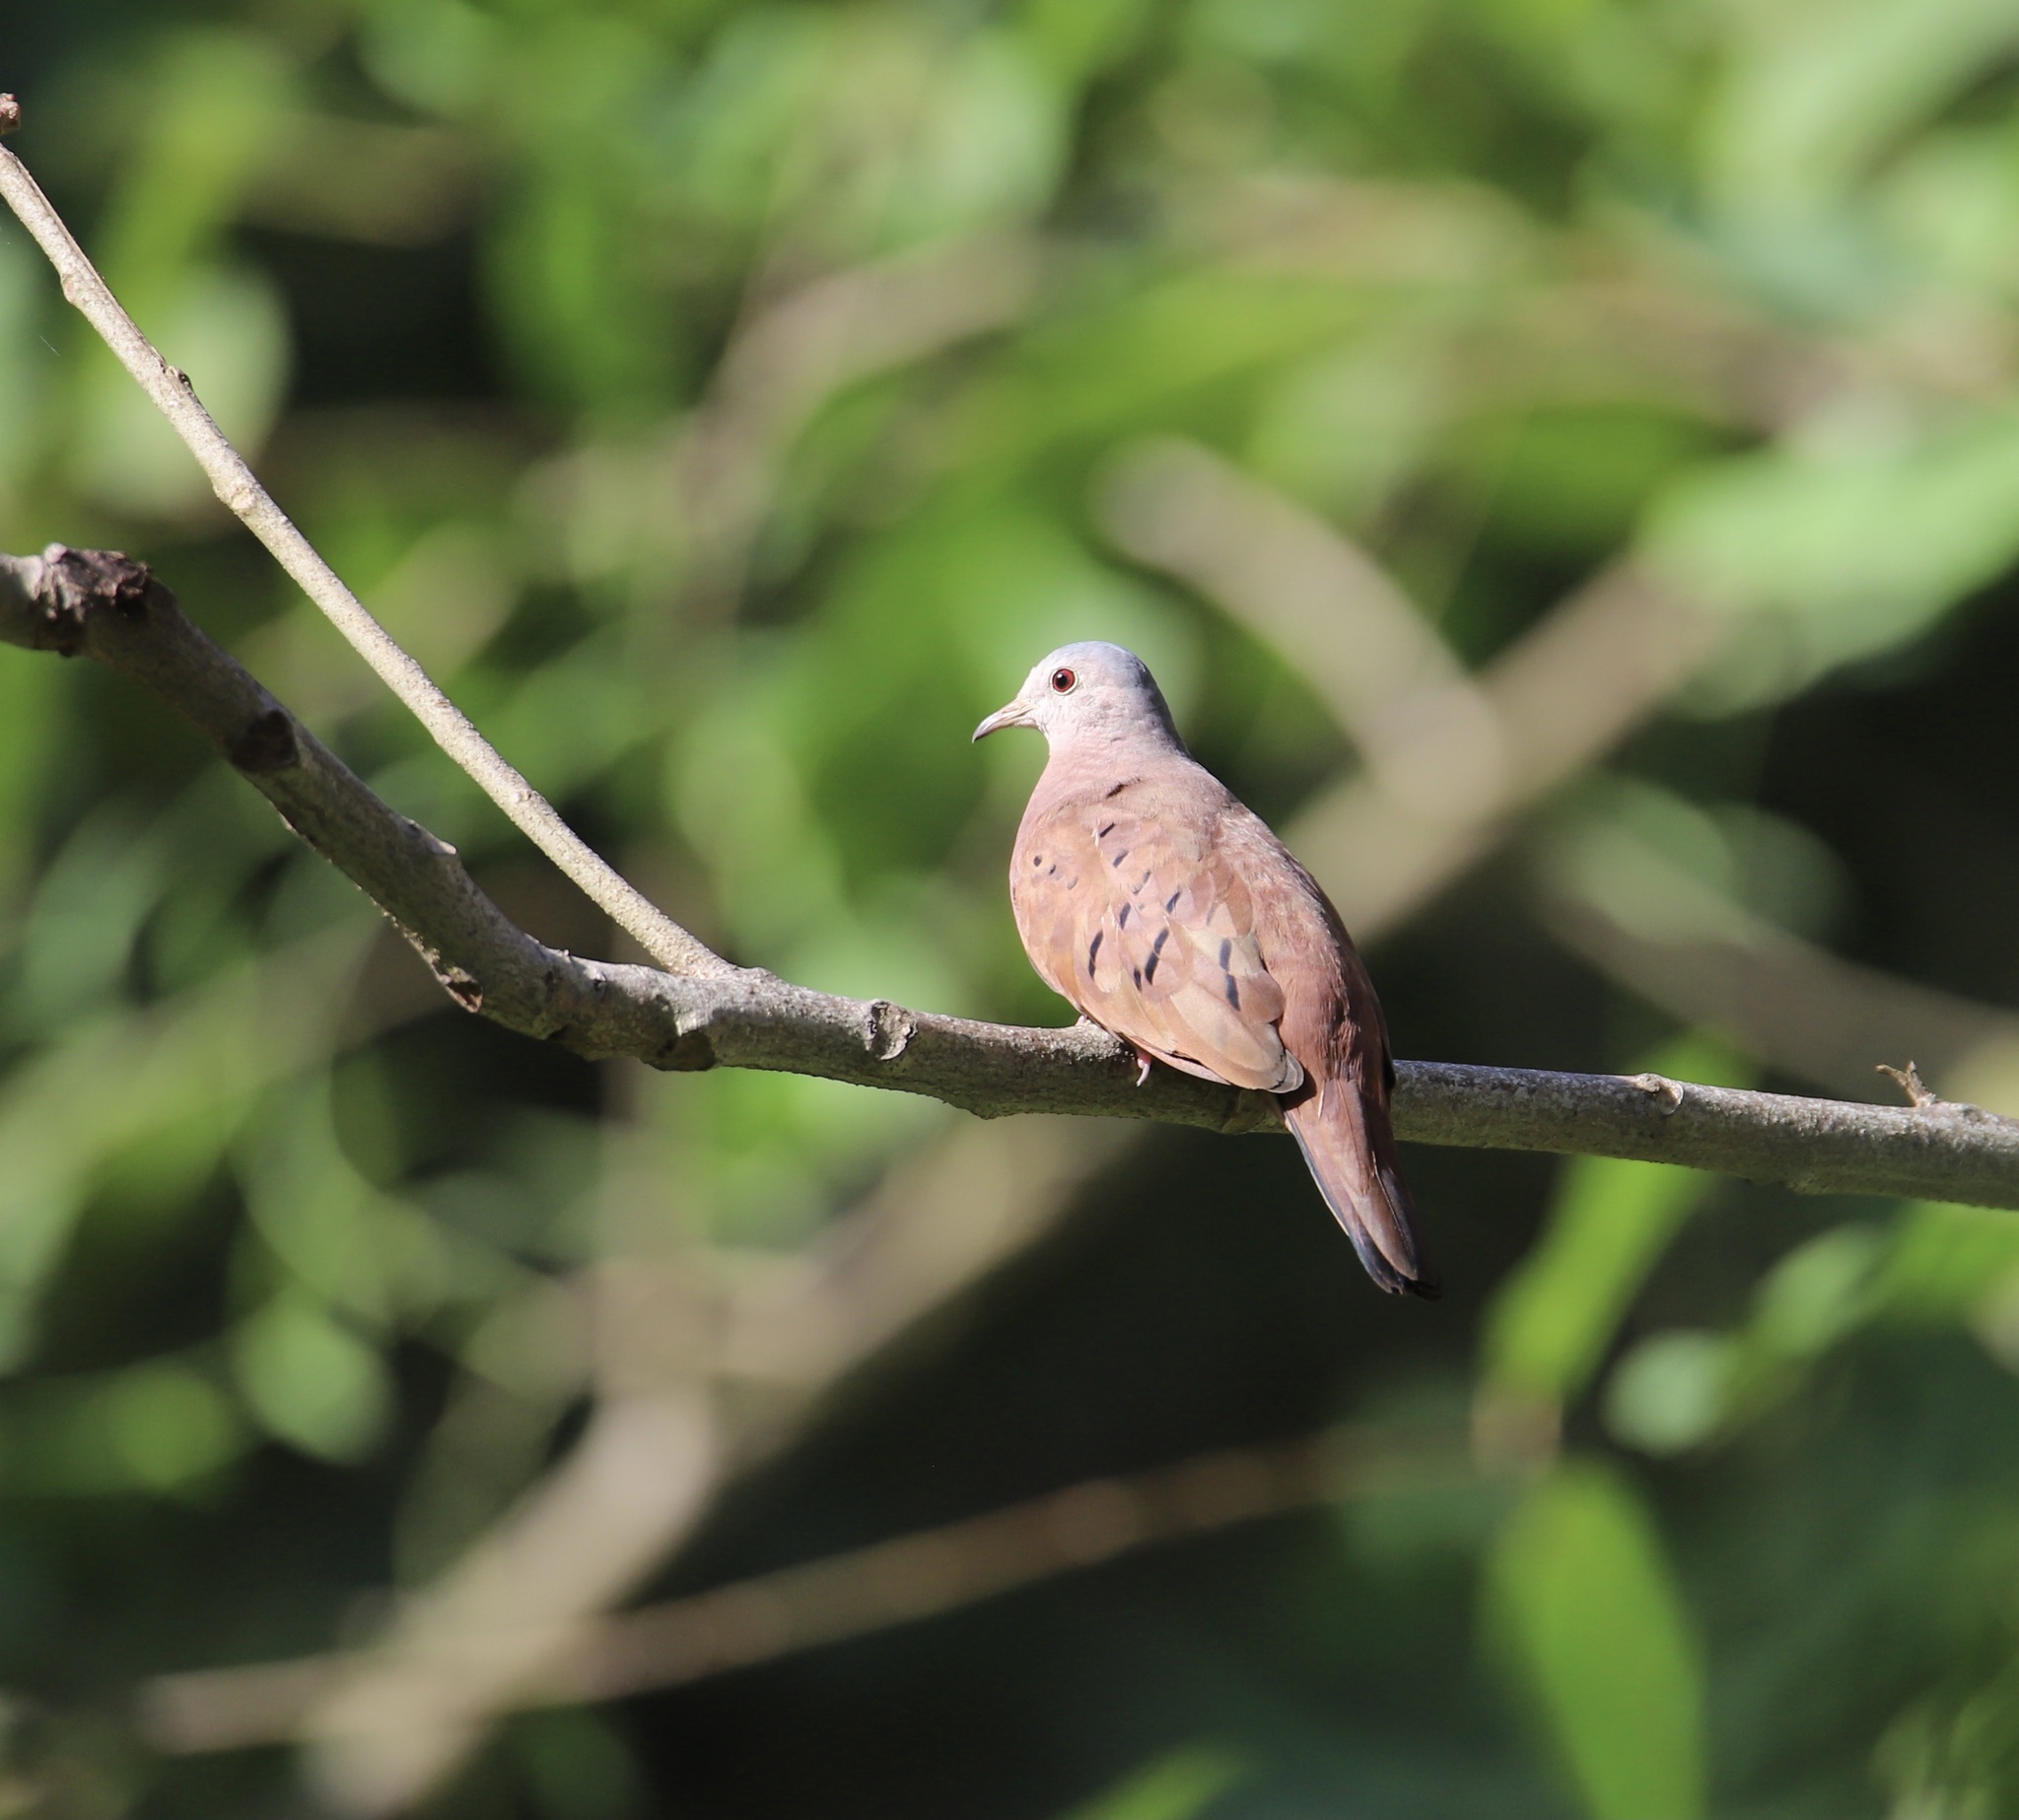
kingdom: Animalia
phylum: Chordata
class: Aves
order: Columbiformes
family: Columbidae
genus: Columbina
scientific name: Columbina talpacoti
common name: Ruddy ground dove
